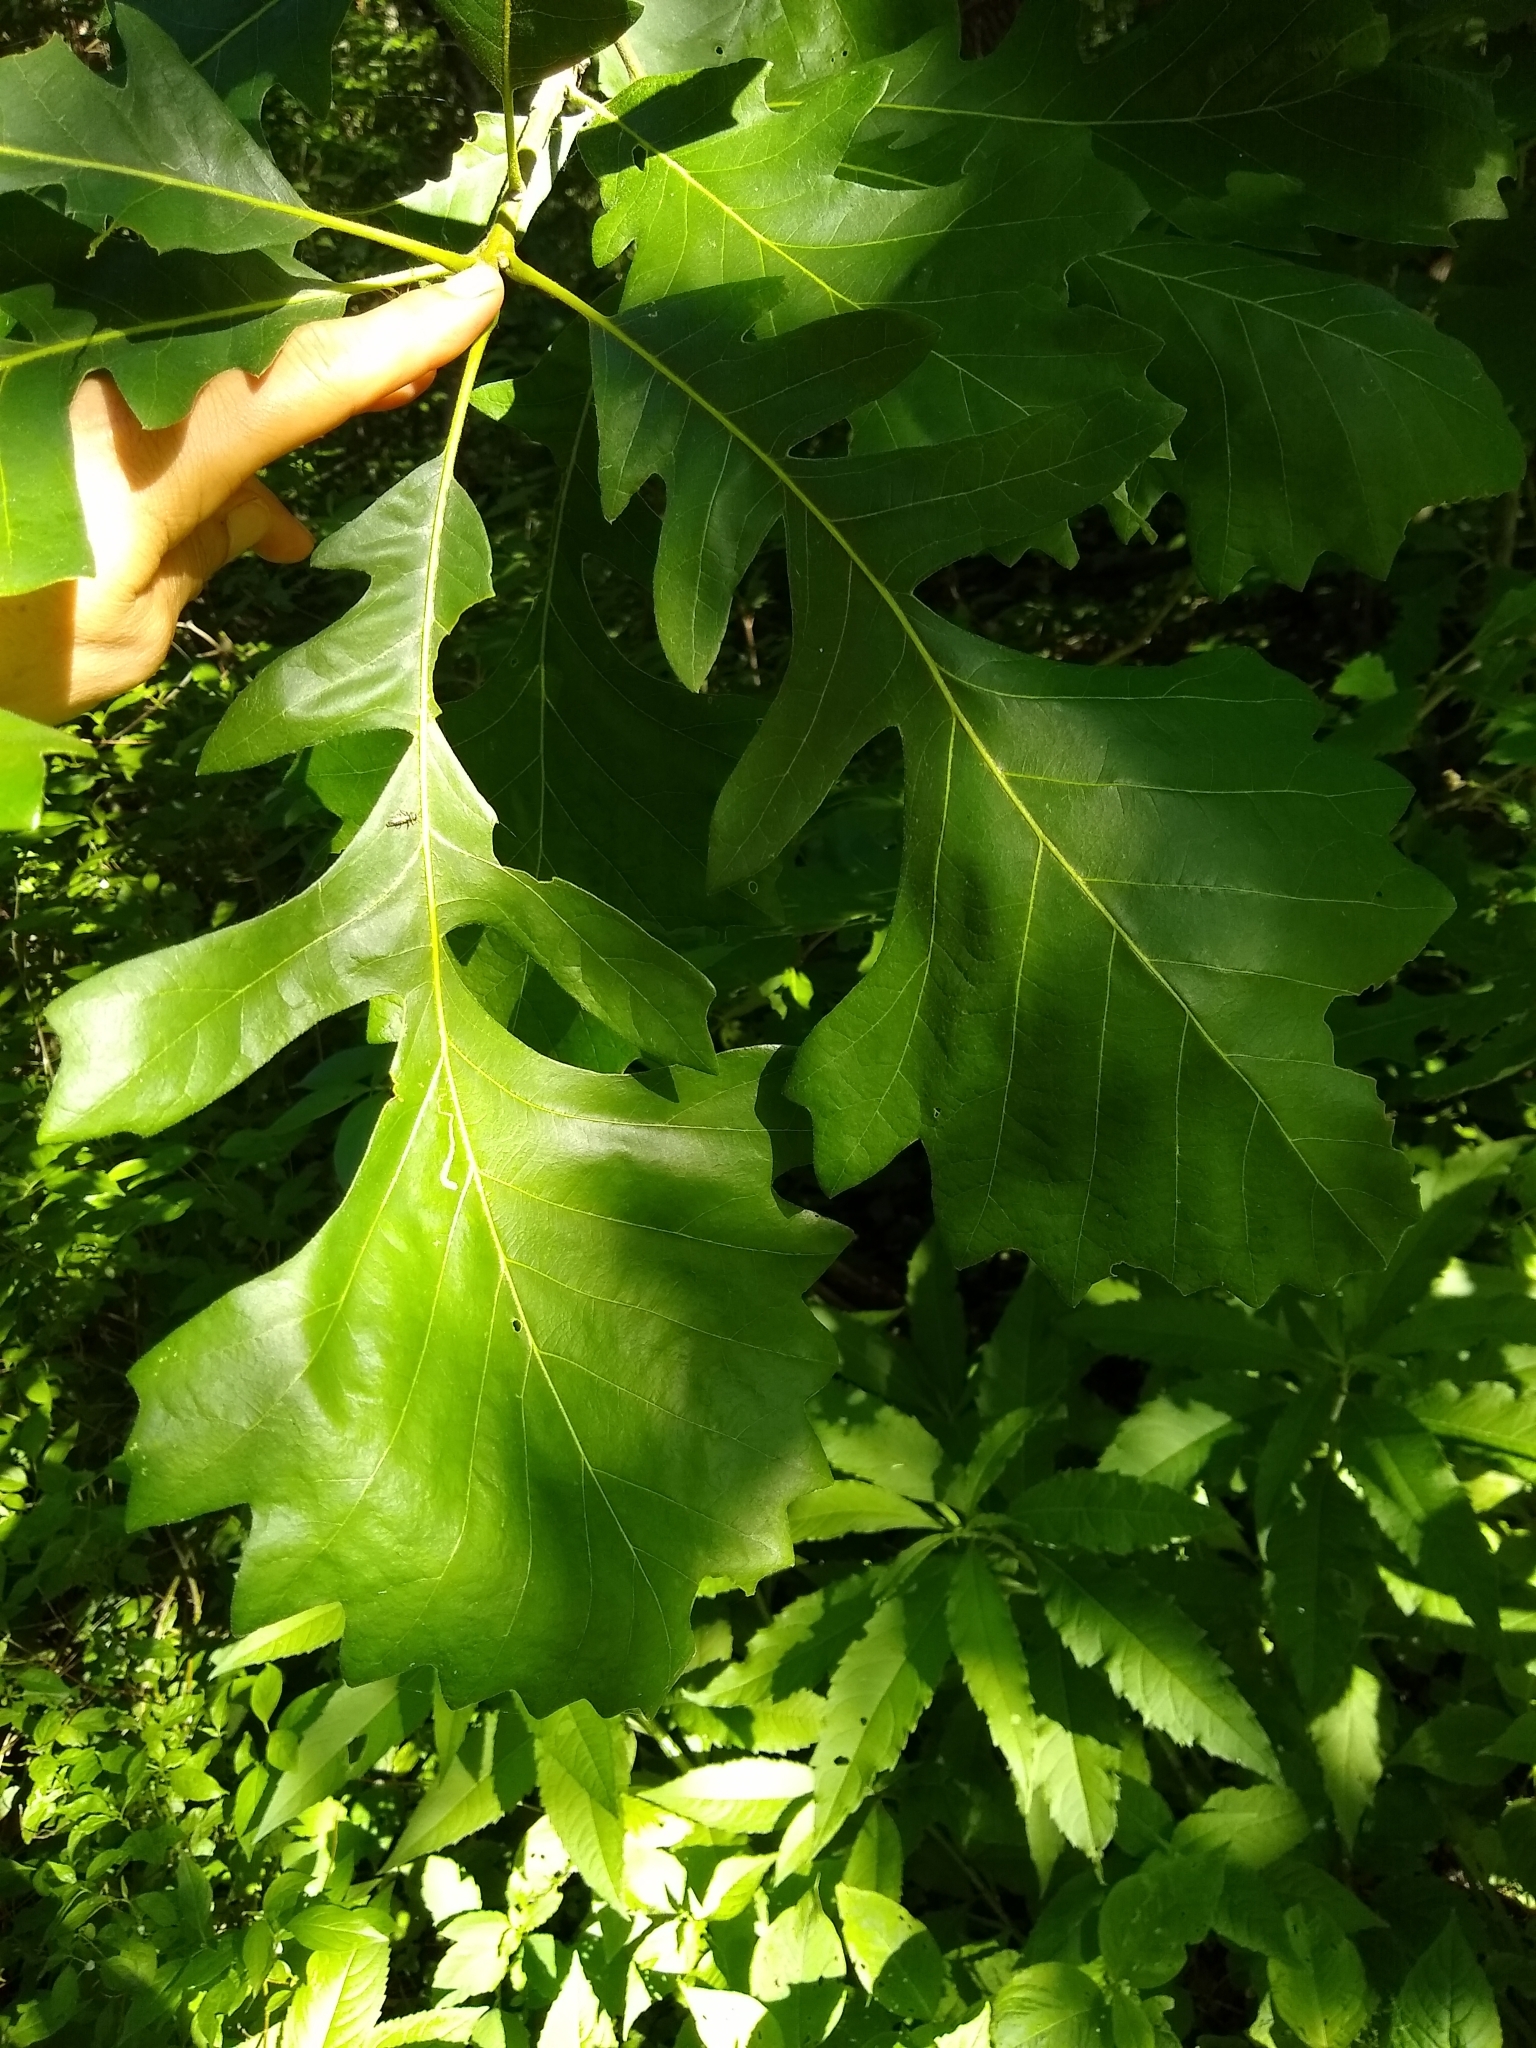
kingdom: Plantae
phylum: Tracheophyta
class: Magnoliopsida
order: Fagales
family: Fagaceae
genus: Quercus
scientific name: Quercus macrocarpa
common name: Bur oak
